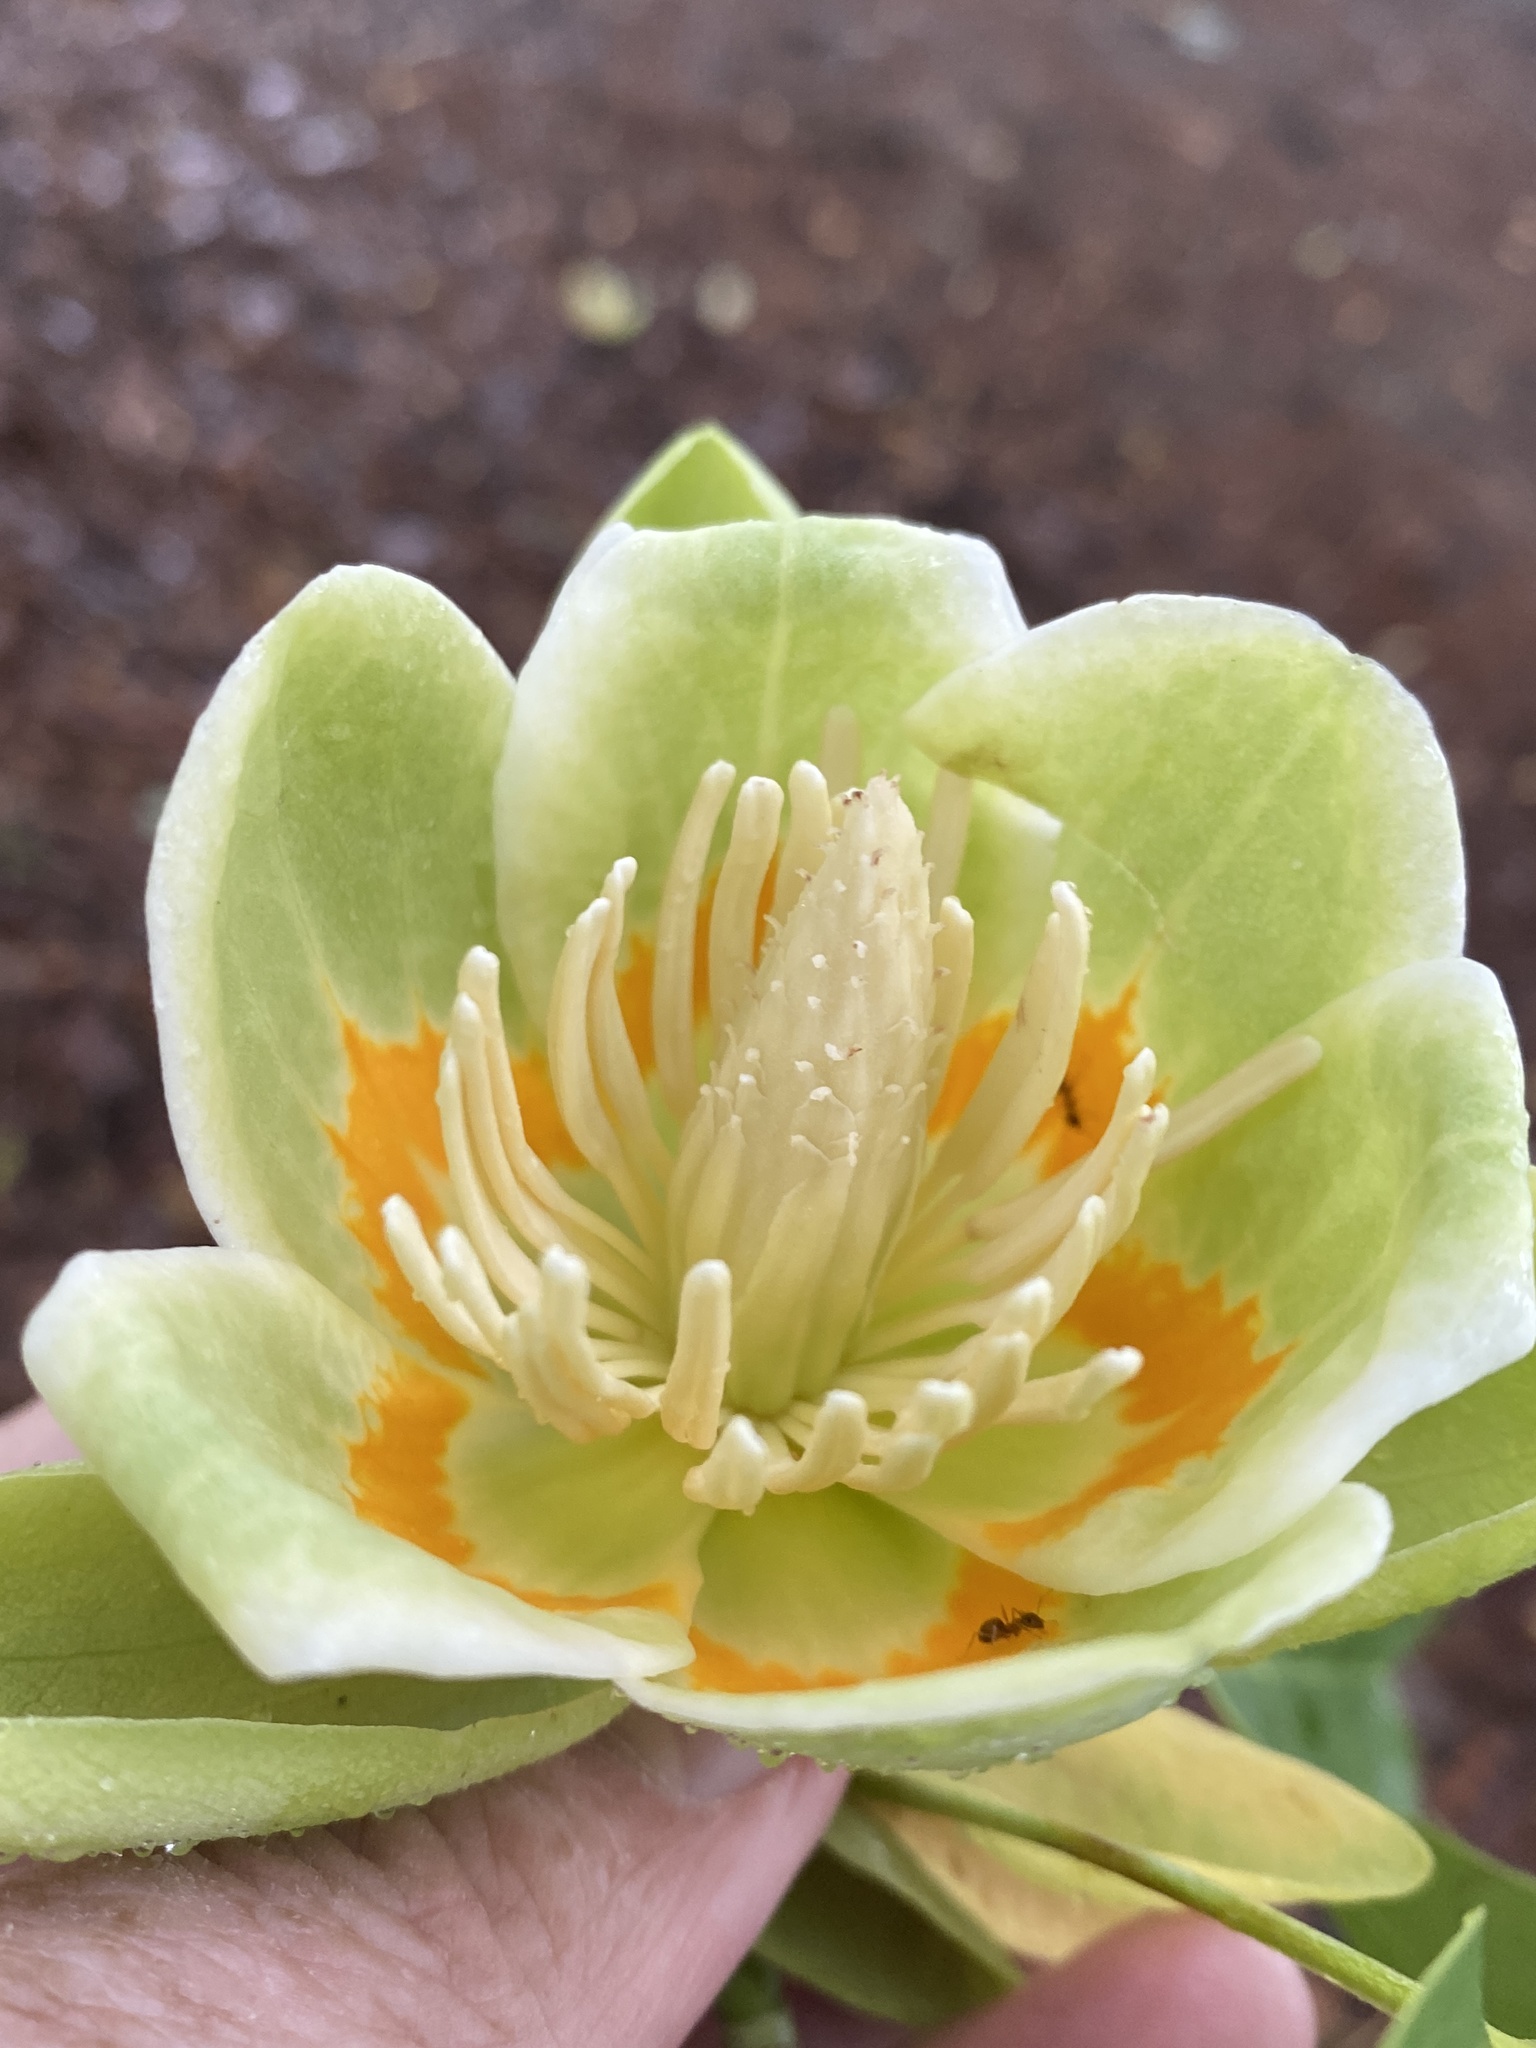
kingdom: Plantae
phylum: Tracheophyta
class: Magnoliopsida
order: Magnoliales
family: Magnoliaceae
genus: Liriodendron
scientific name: Liriodendron tulipifera
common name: Tulip tree
